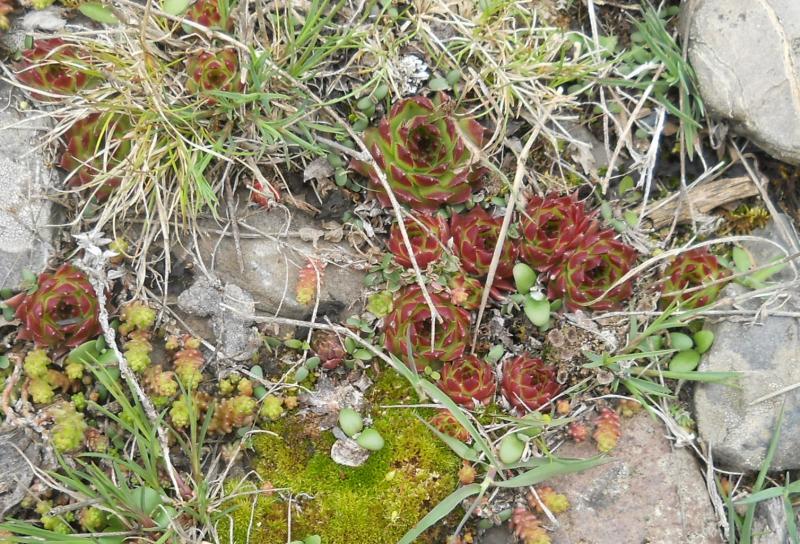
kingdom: Plantae
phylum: Tracheophyta
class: Magnoliopsida
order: Saxifragales
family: Crassulaceae
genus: Sempervivum
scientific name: Sempervivum caucasicum
